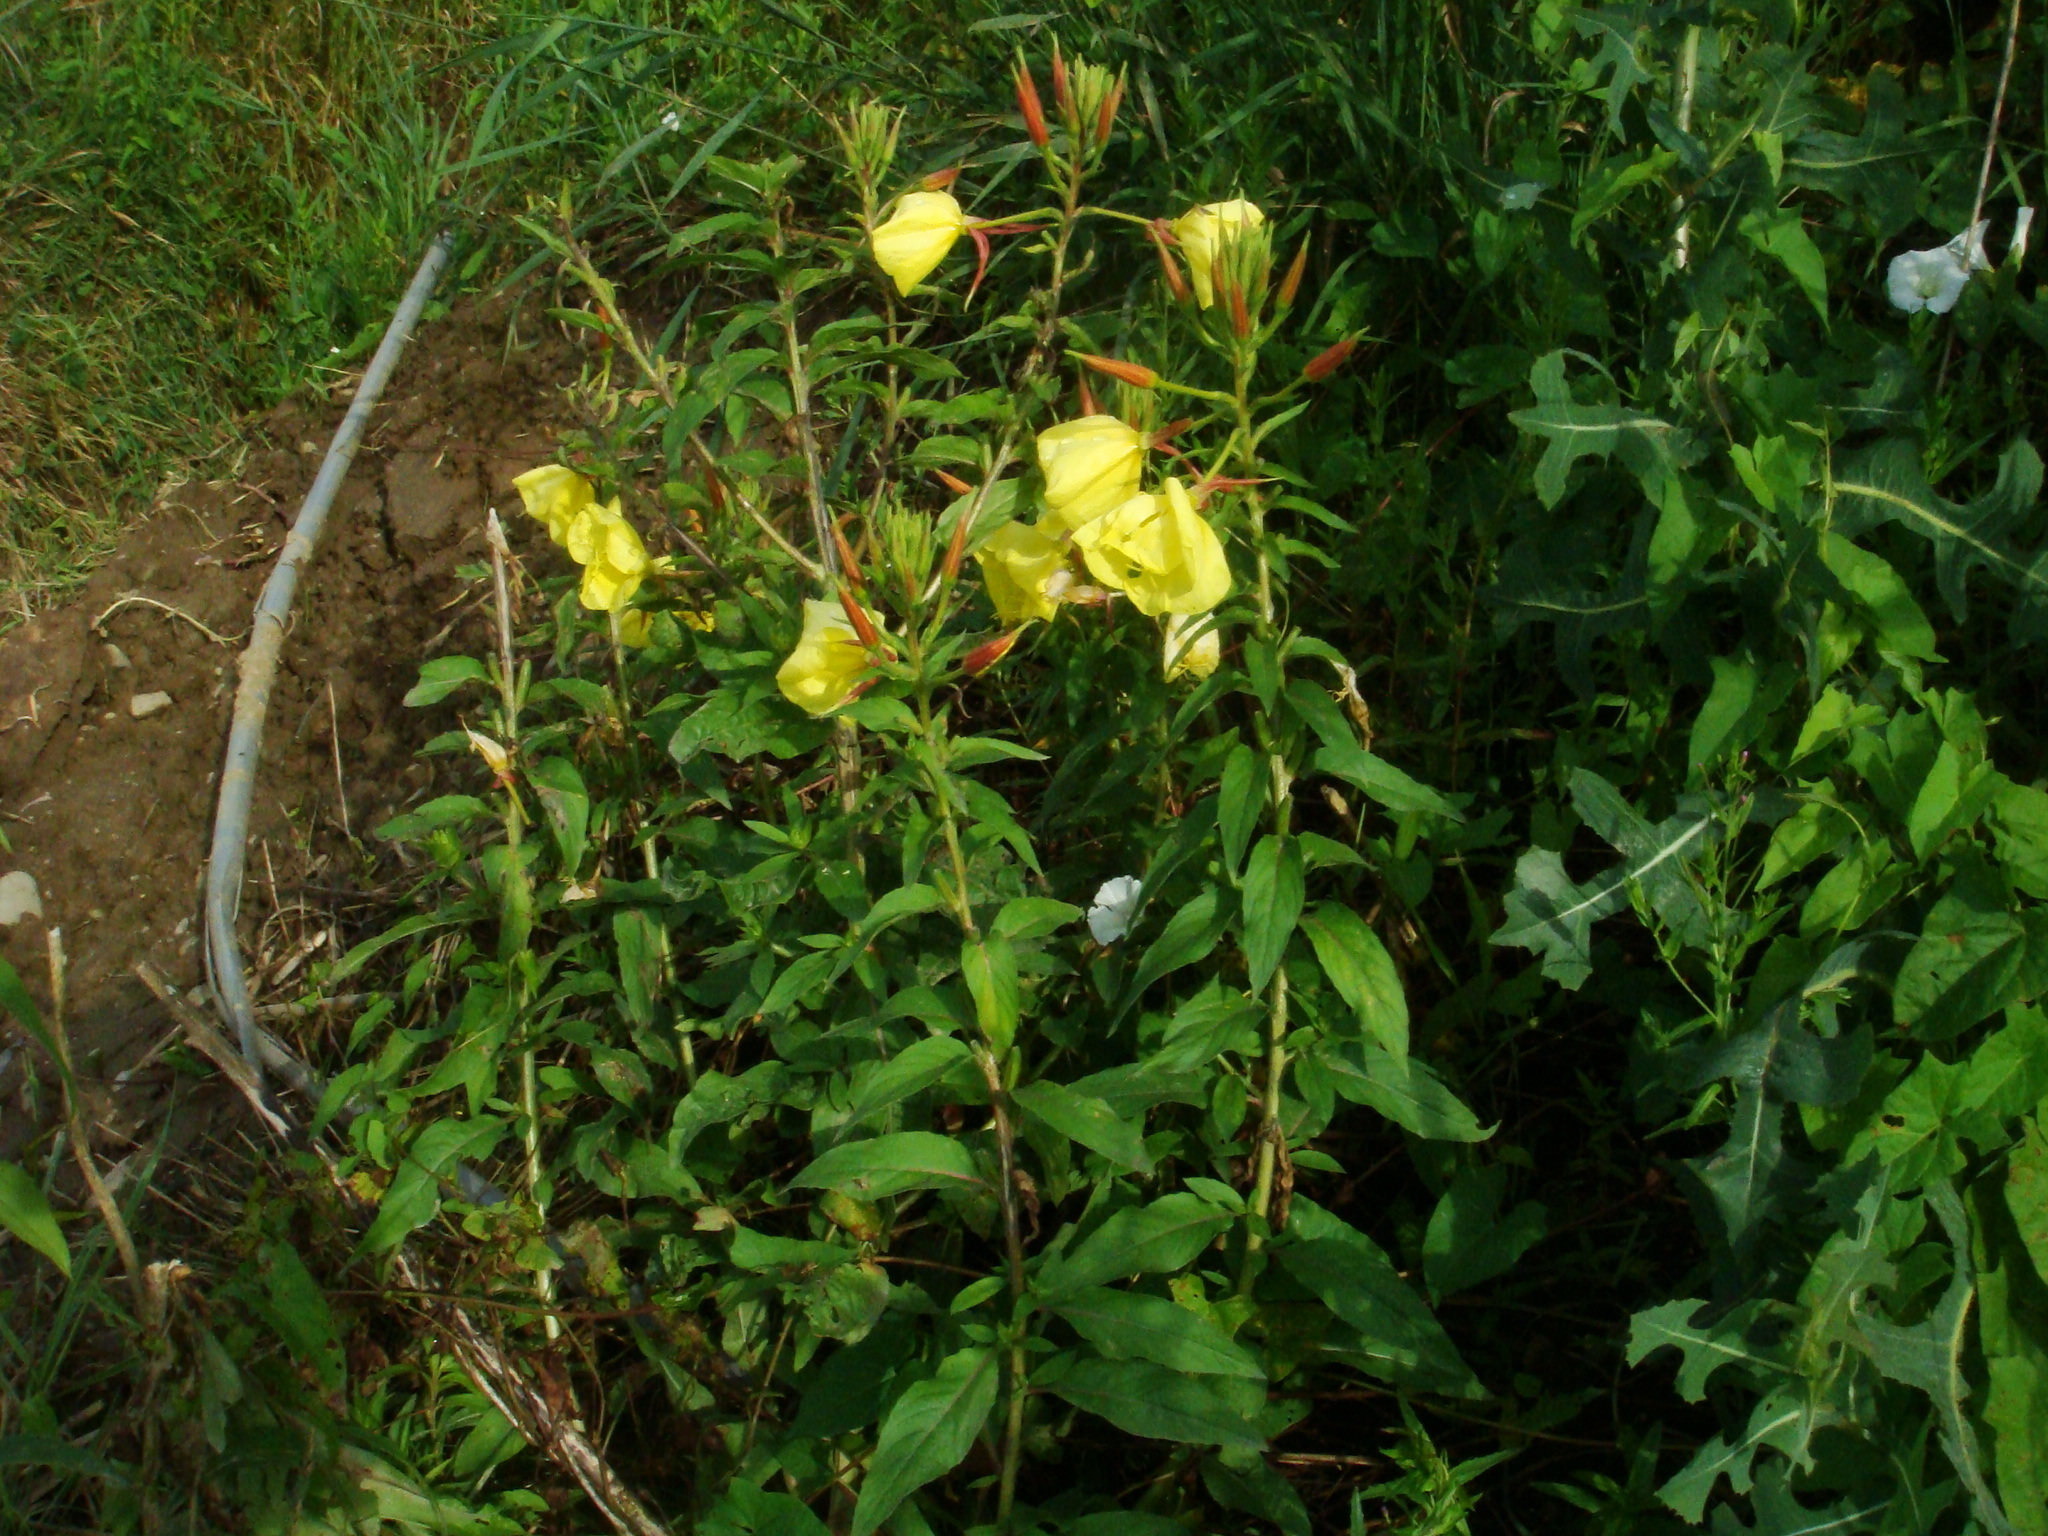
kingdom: Plantae
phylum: Tracheophyta
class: Magnoliopsida
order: Myrtales
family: Onagraceae
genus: Oenothera
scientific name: Oenothera glazioviana
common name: Large-flowered evening-primrose
